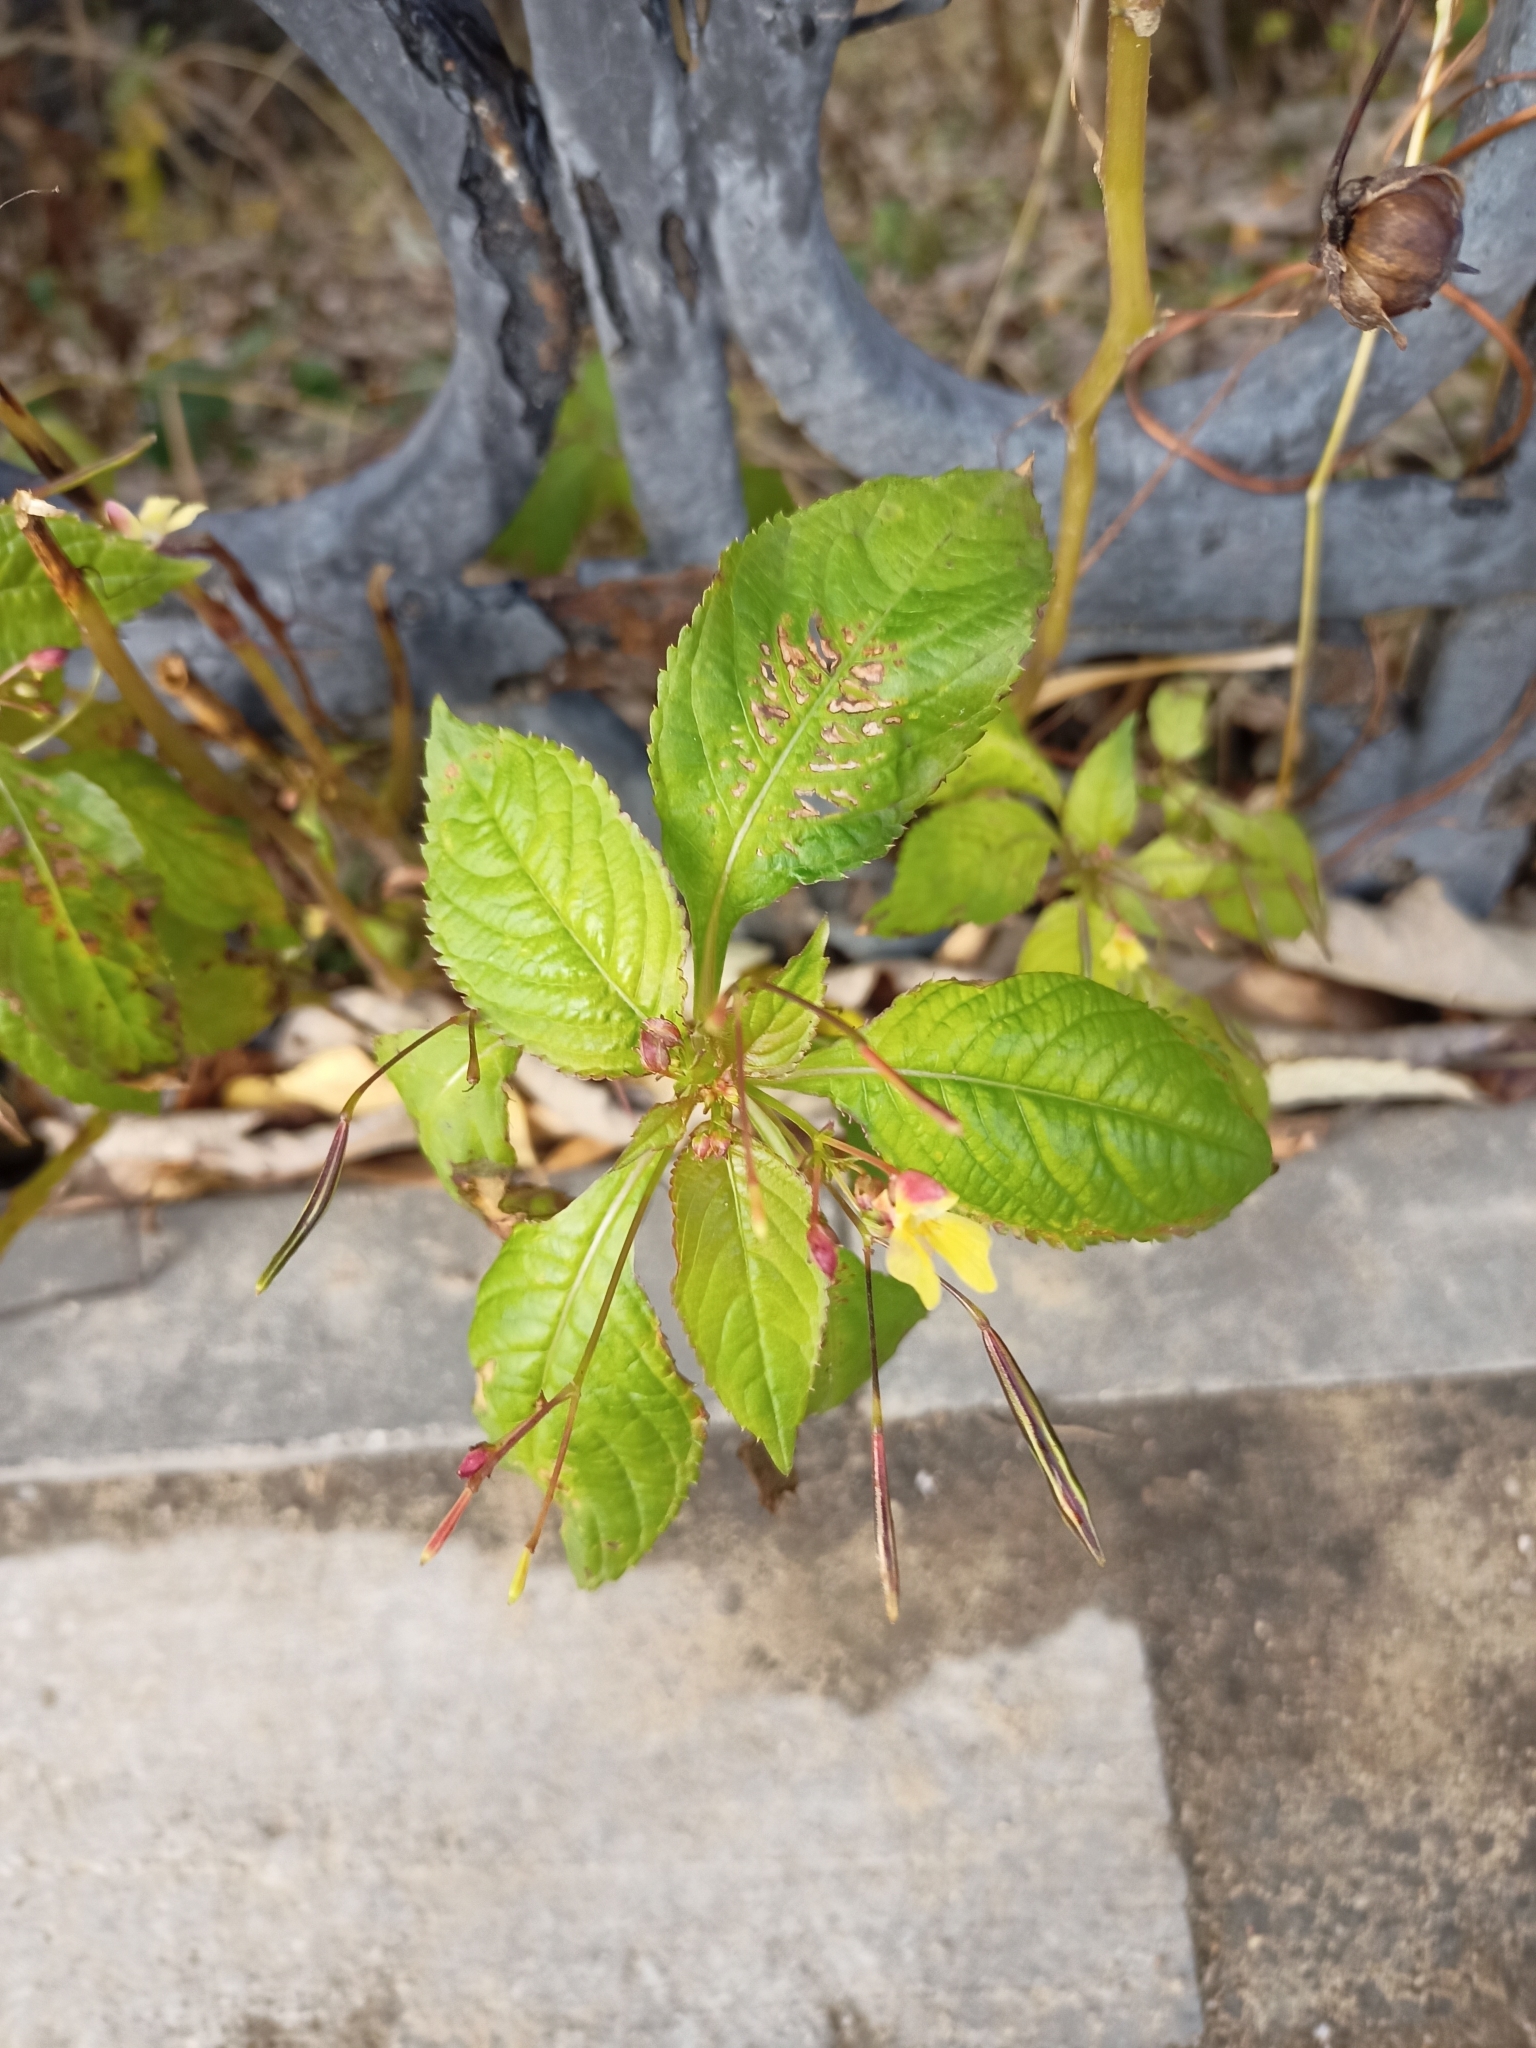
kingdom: Plantae
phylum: Tracheophyta
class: Magnoliopsida
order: Ericales
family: Balsaminaceae
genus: Impatiens
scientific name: Impatiens parviflora
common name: Small balsam
